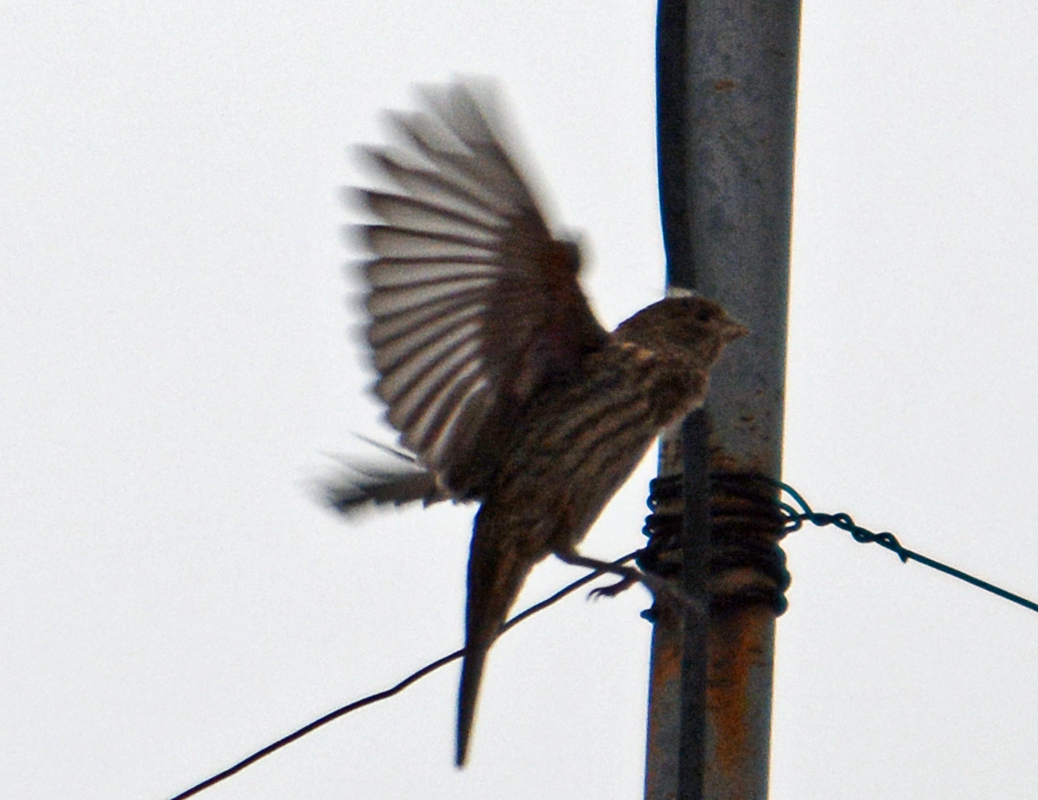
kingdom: Animalia
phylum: Chordata
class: Aves
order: Passeriformes
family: Fringillidae
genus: Haemorhous
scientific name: Haemorhous mexicanus
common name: House finch
